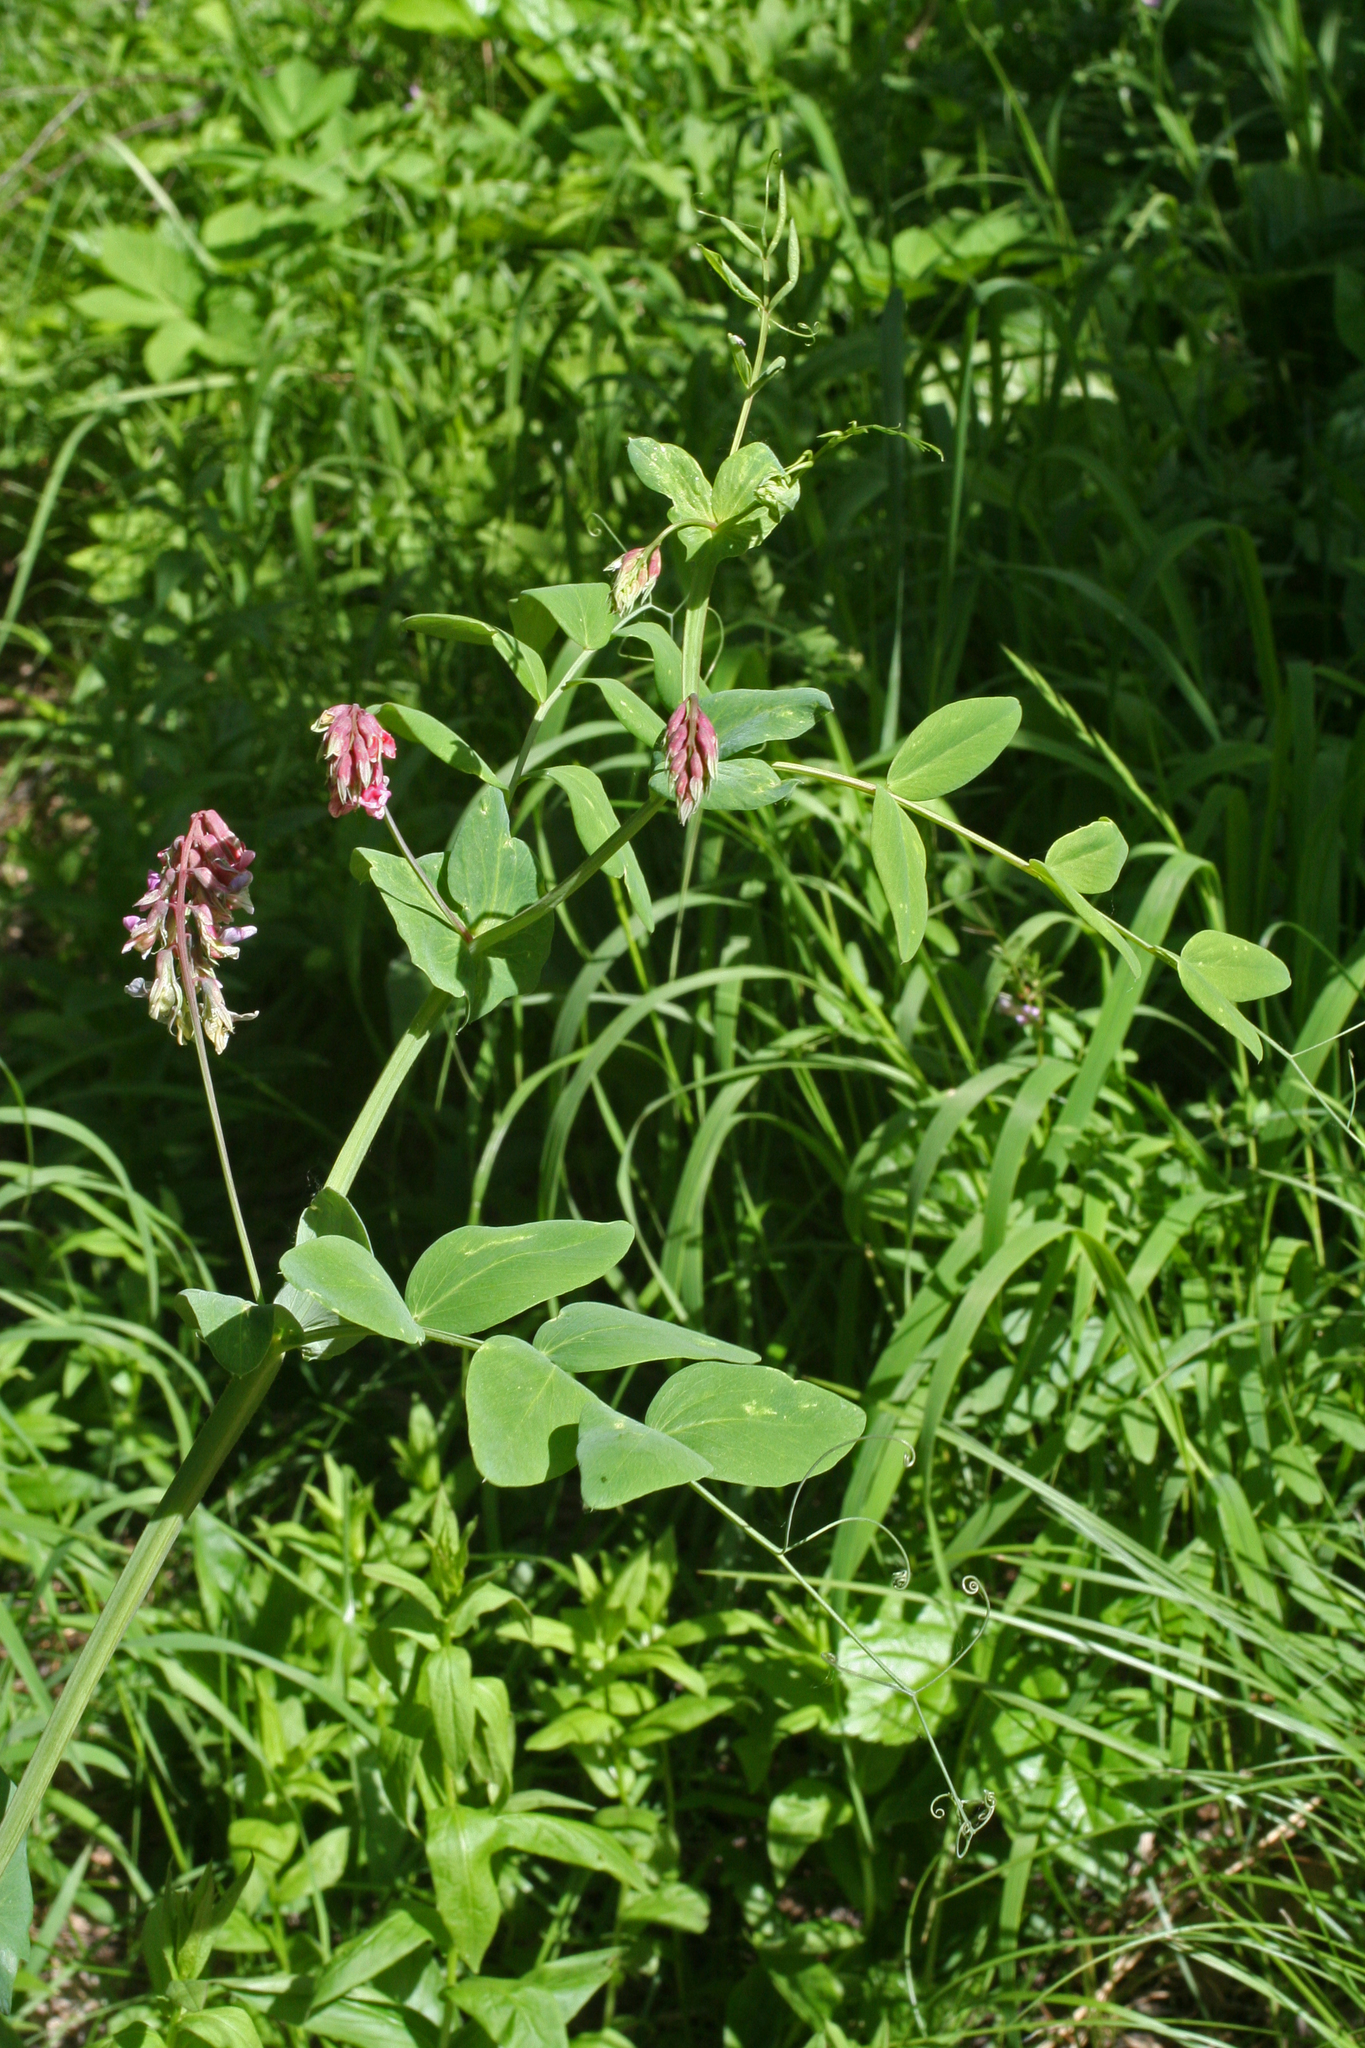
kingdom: Plantae
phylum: Tracheophyta
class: Magnoliopsida
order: Fabales
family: Fabaceae
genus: Lathyrus
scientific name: Lathyrus pisiformis
